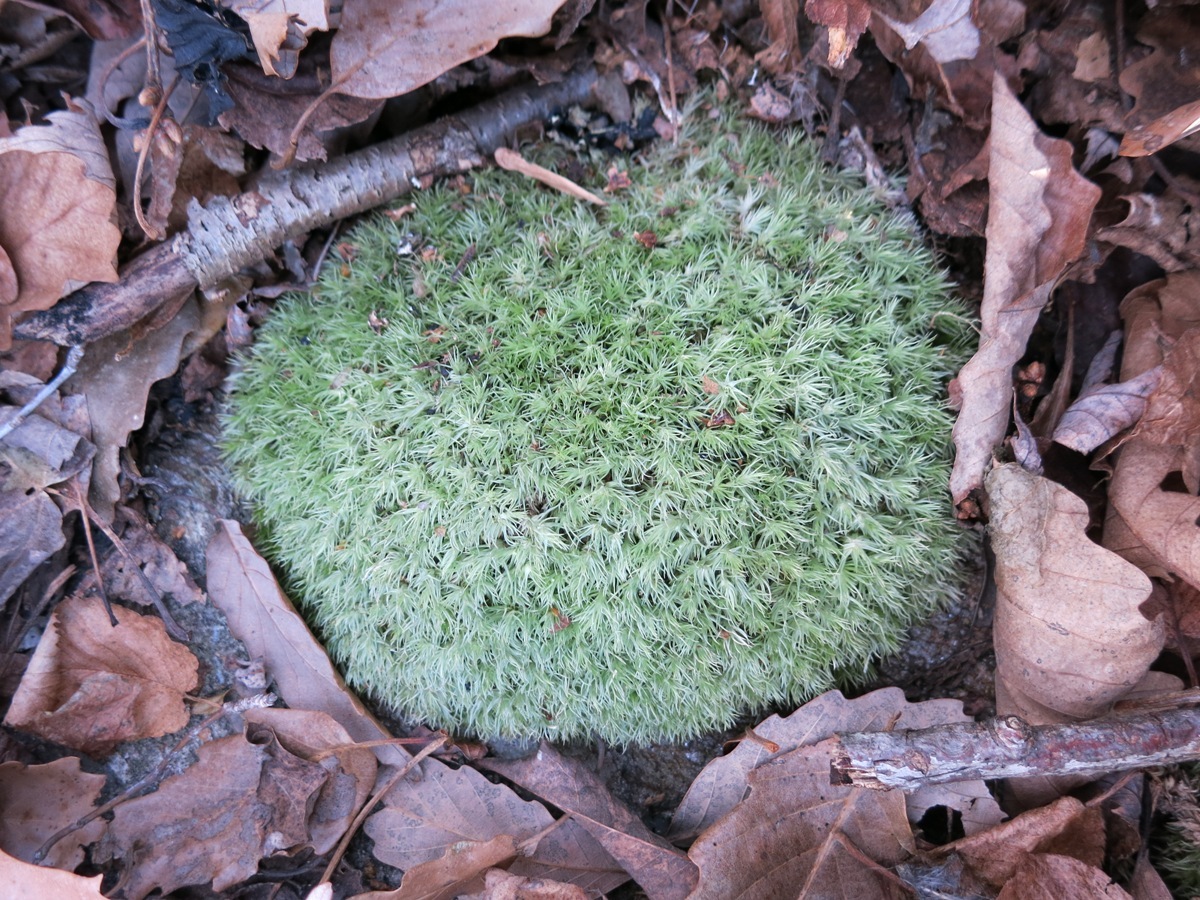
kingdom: Plantae
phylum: Bryophyta
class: Bryopsida
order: Dicranales
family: Leucobryaceae
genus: Leucobryum
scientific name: Leucobryum glaucum
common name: Large white-moss
